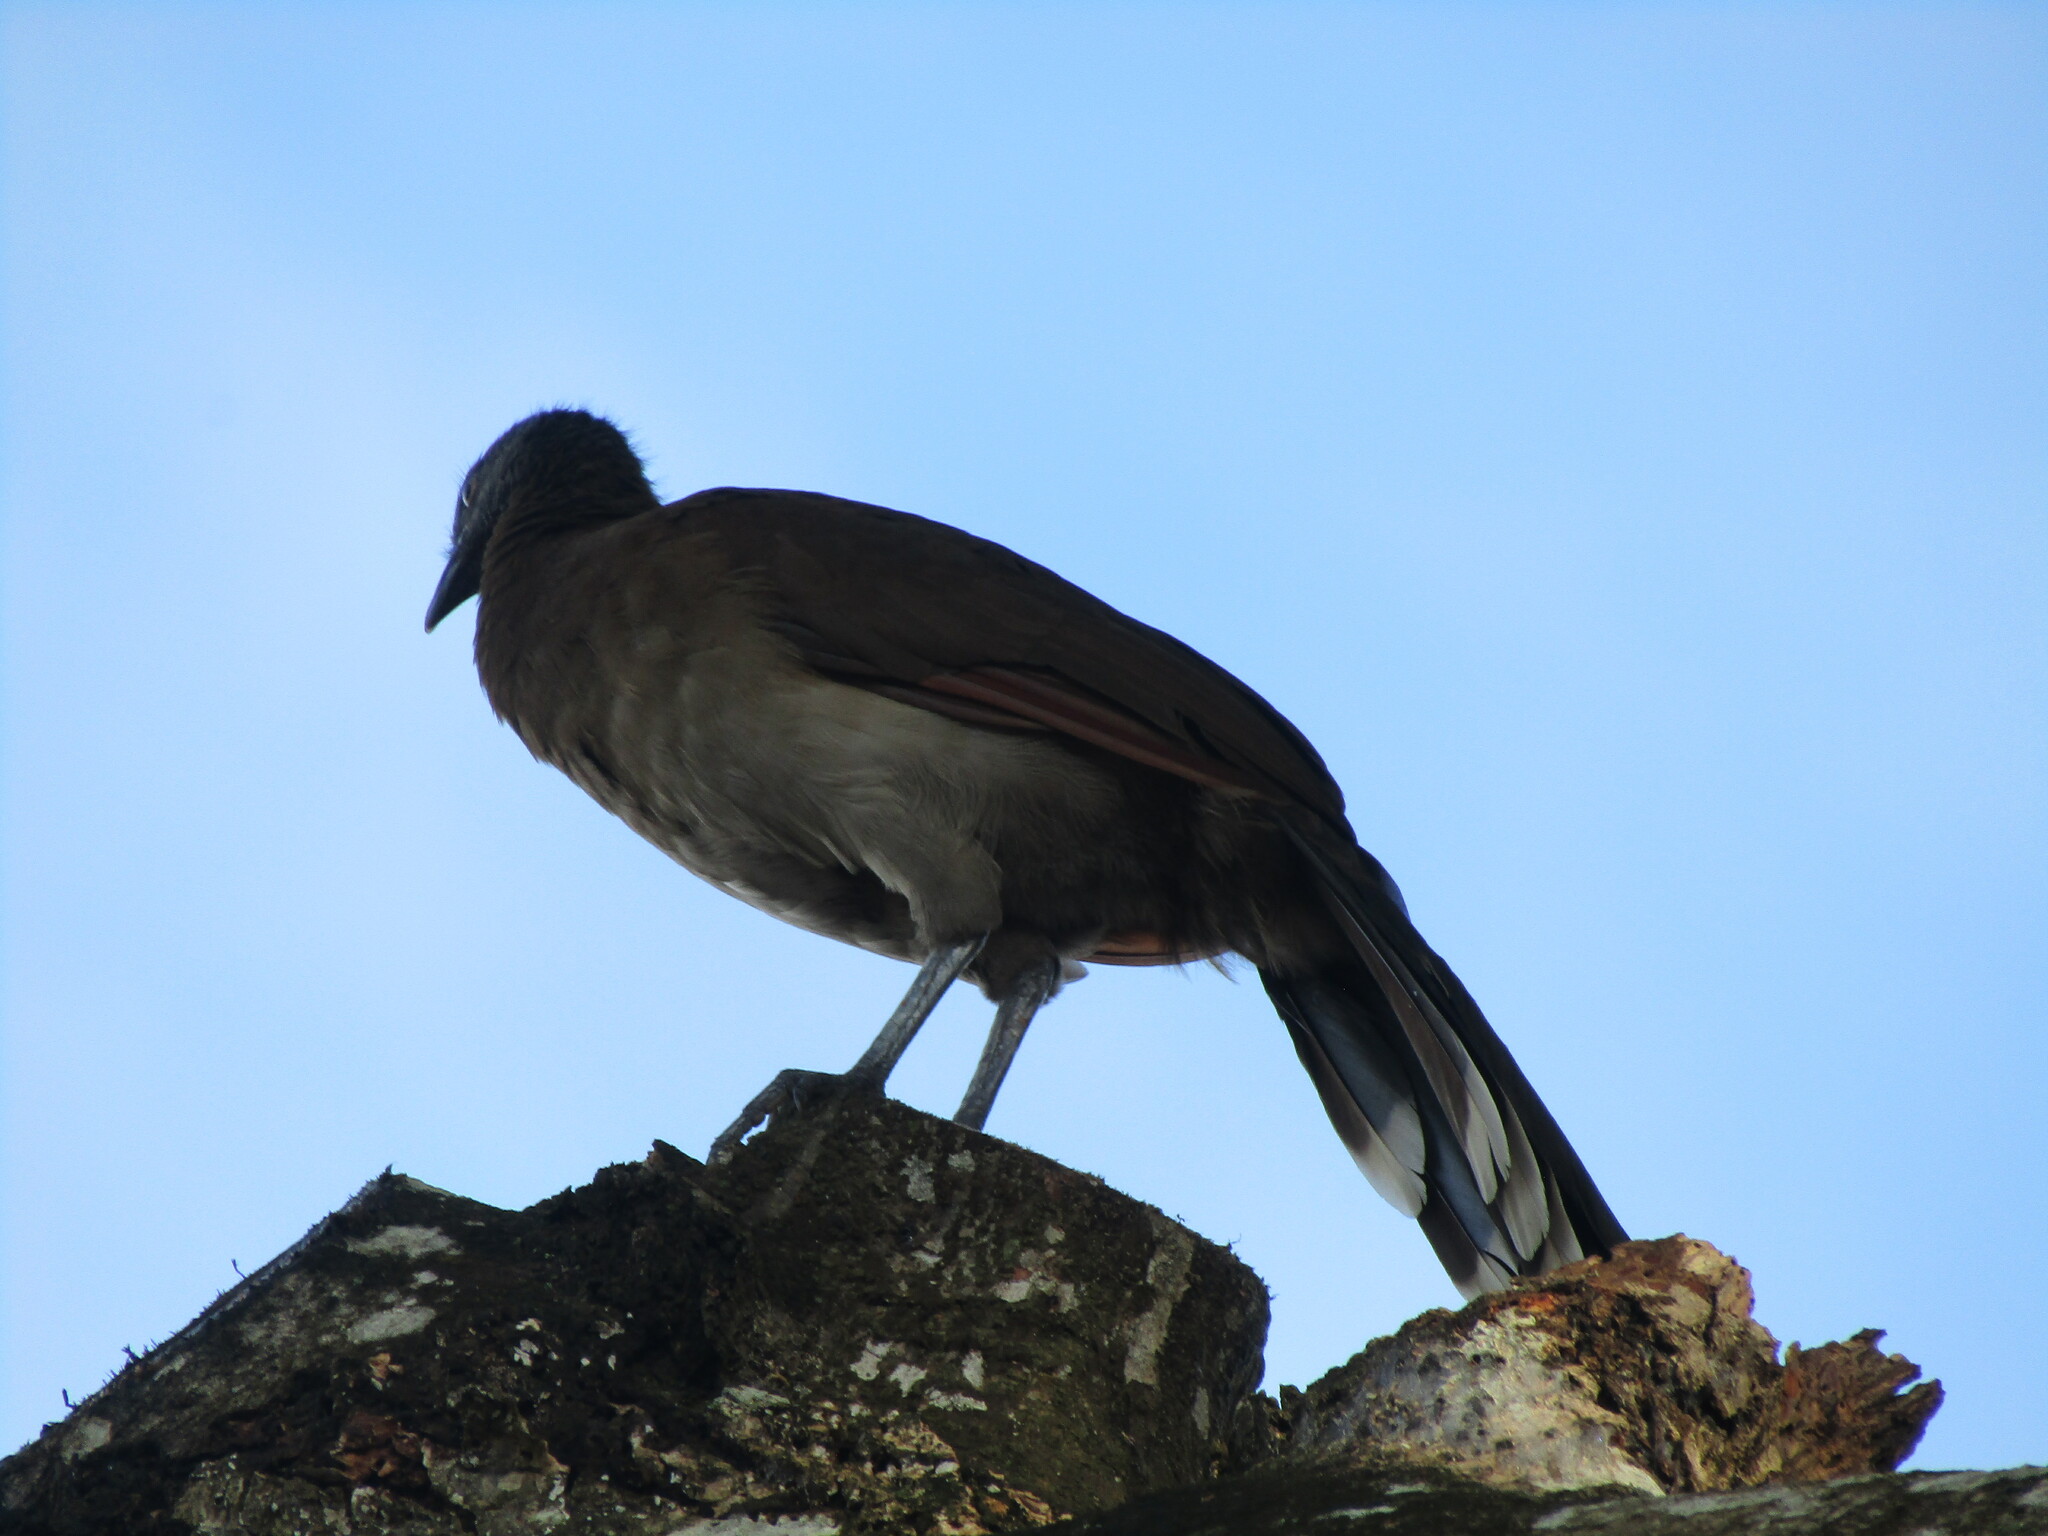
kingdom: Animalia
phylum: Chordata
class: Aves
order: Galliformes
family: Cracidae
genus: Ortalis
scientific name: Ortalis cinereiceps
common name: Grey-headed chachalaca
